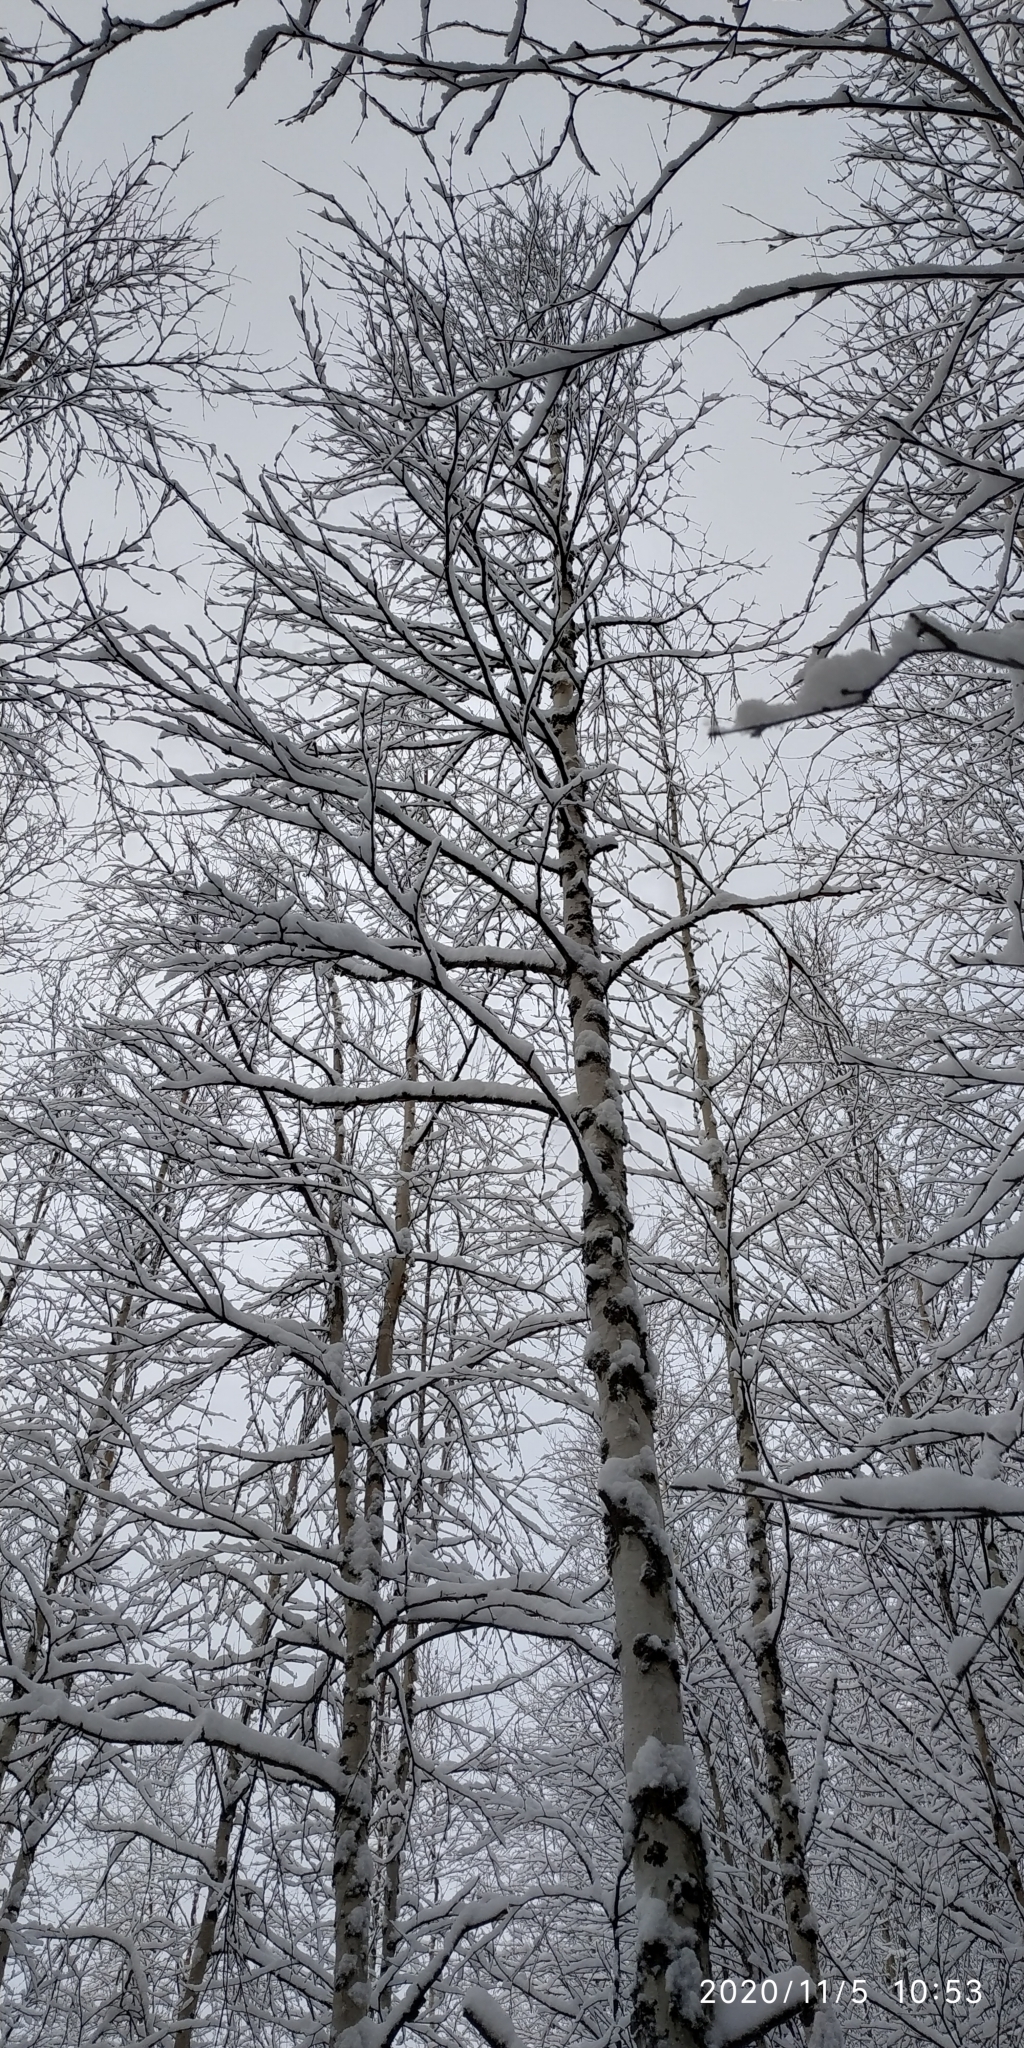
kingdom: Plantae
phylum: Tracheophyta
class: Magnoliopsida
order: Fagales
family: Betulaceae
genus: Betula
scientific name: Betula pubescens
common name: Downy birch
